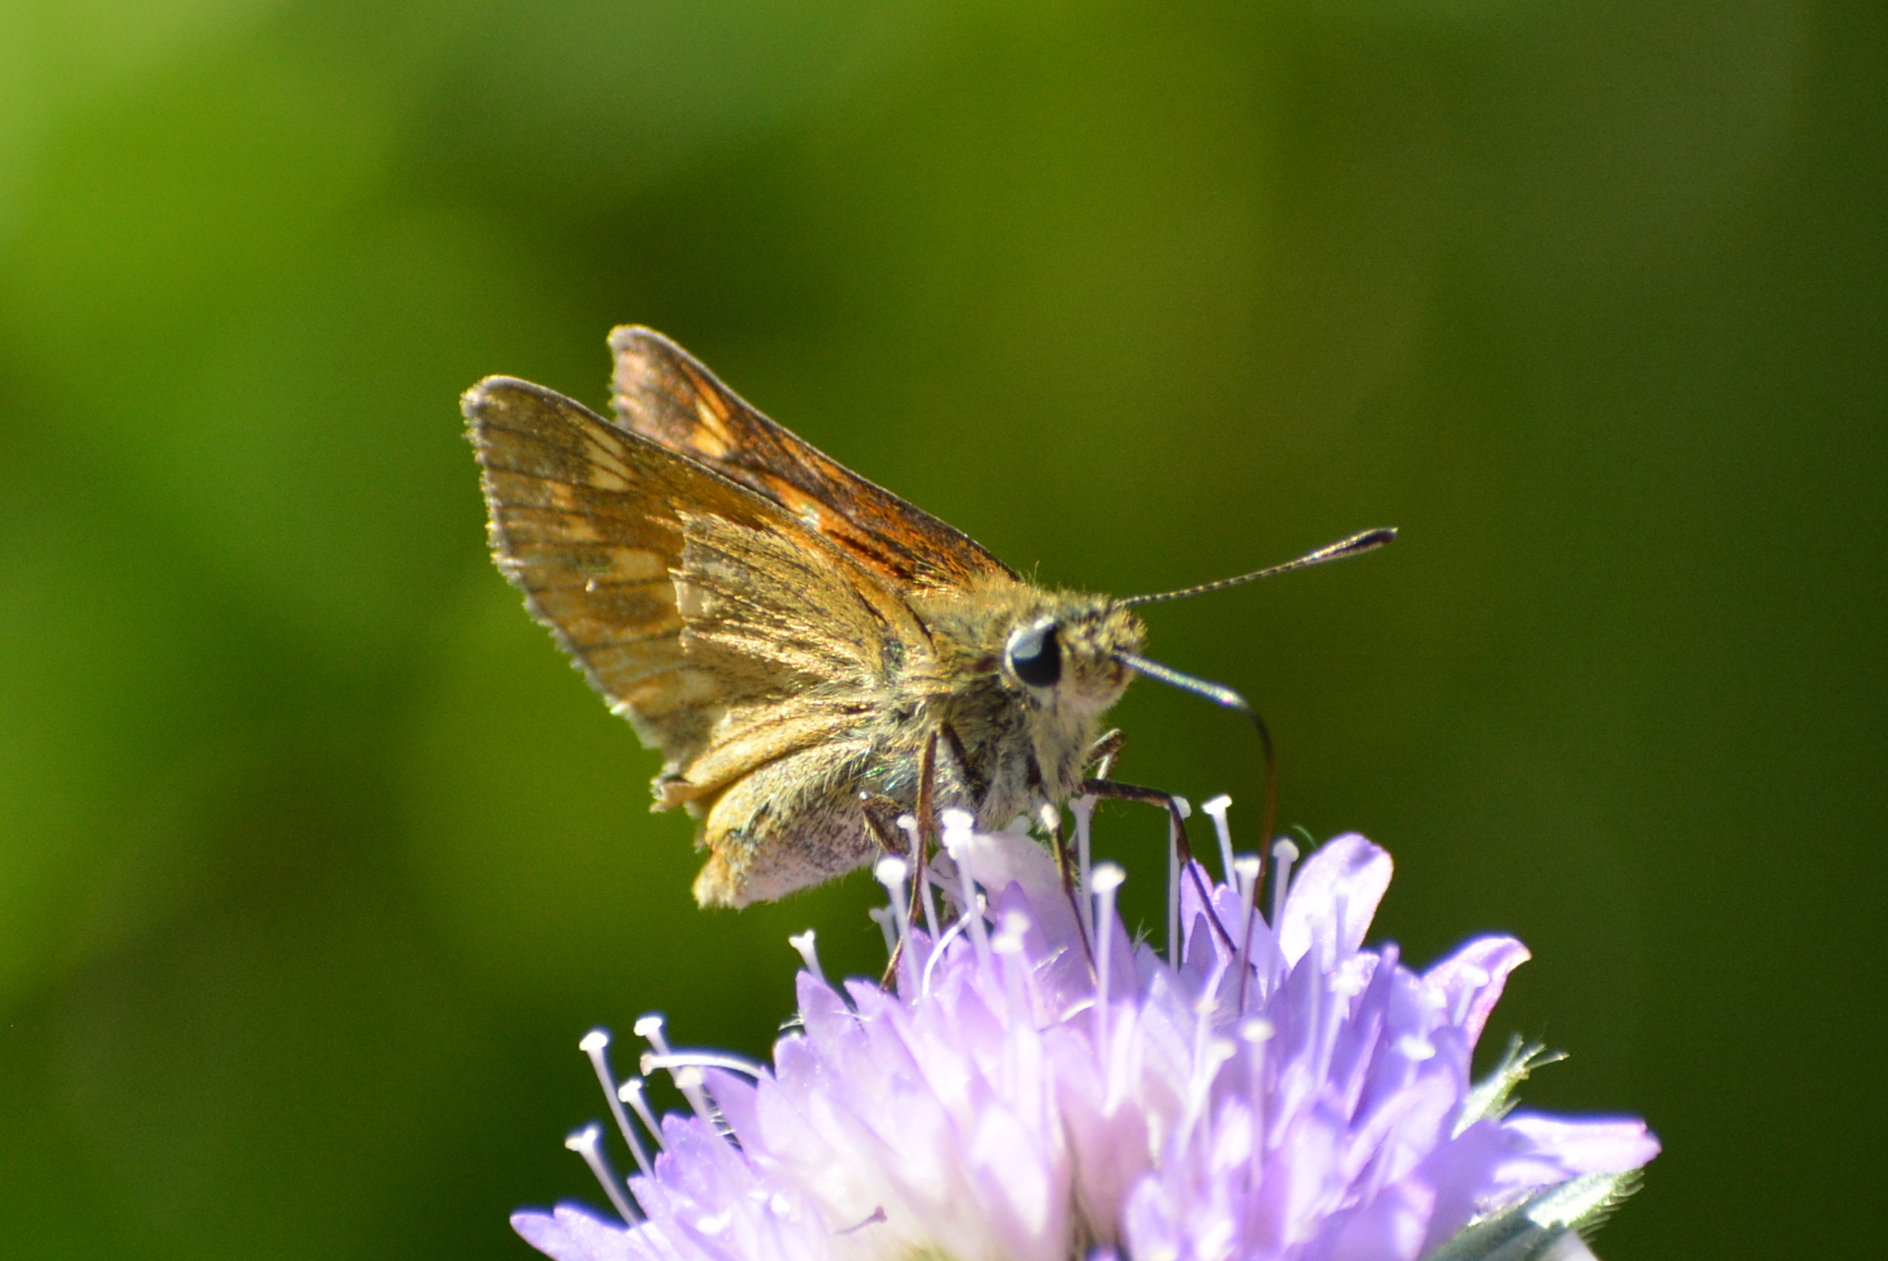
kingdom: Animalia
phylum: Arthropoda
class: Insecta
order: Lepidoptera
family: Hesperiidae
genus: Ochlodes
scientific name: Ochlodes venata
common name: Large skipper
